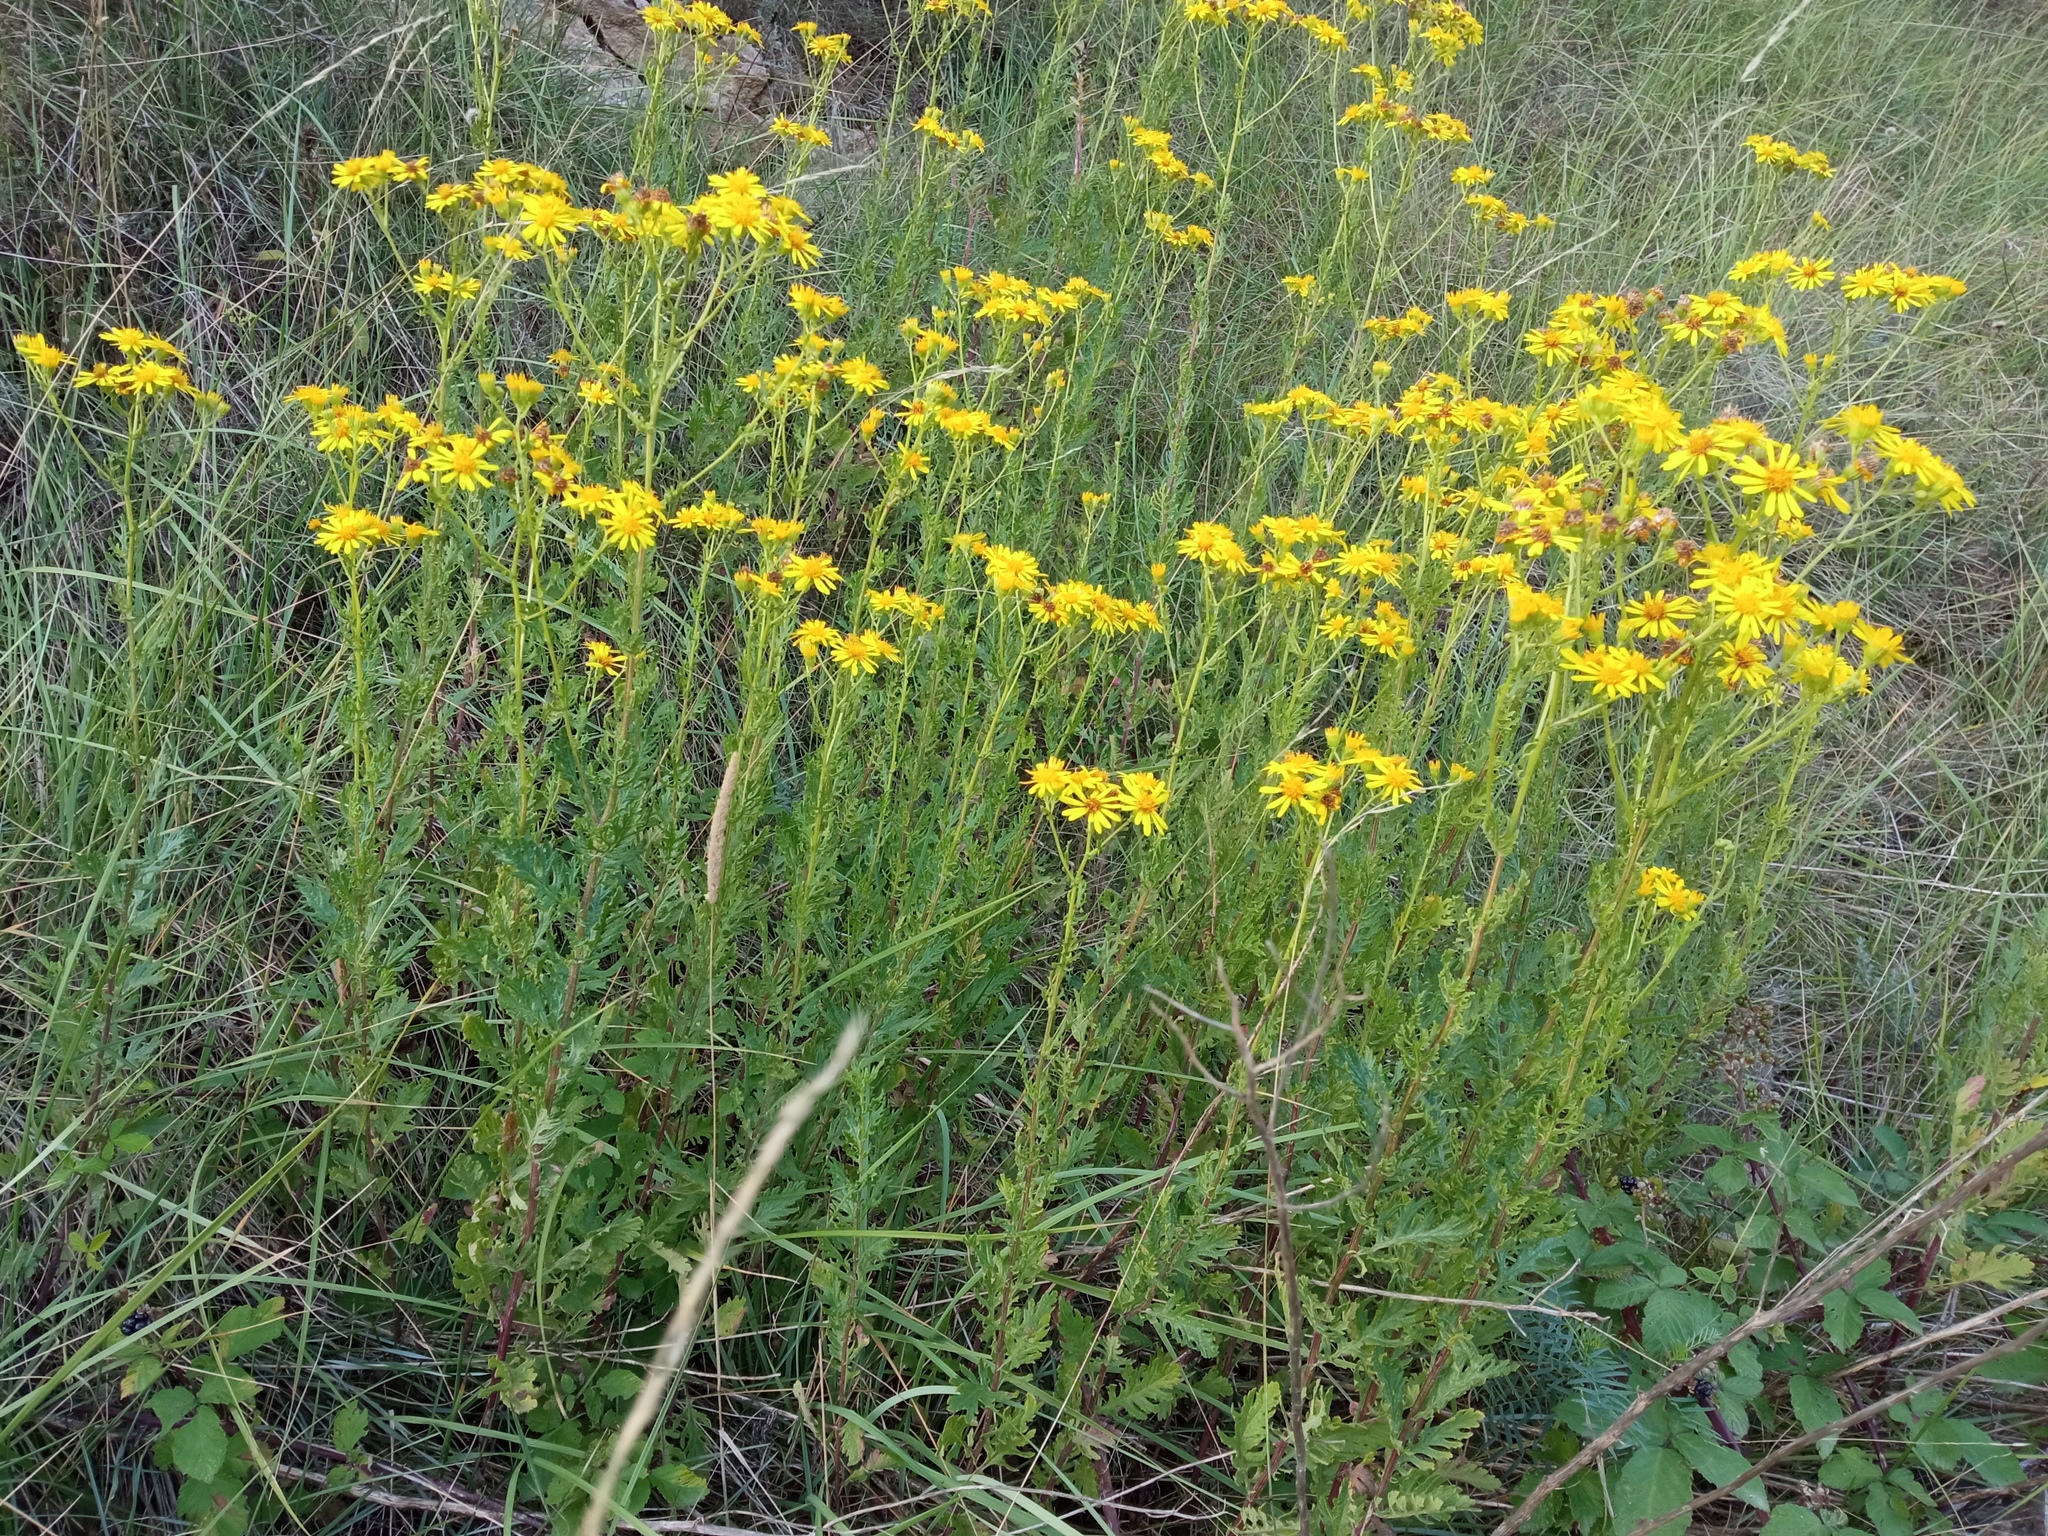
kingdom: Plantae
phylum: Tracheophyta
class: Magnoliopsida
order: Asterales
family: Asteraceae
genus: Jacobaea
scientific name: Jacobaea vulgaris
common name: Stinking willie
